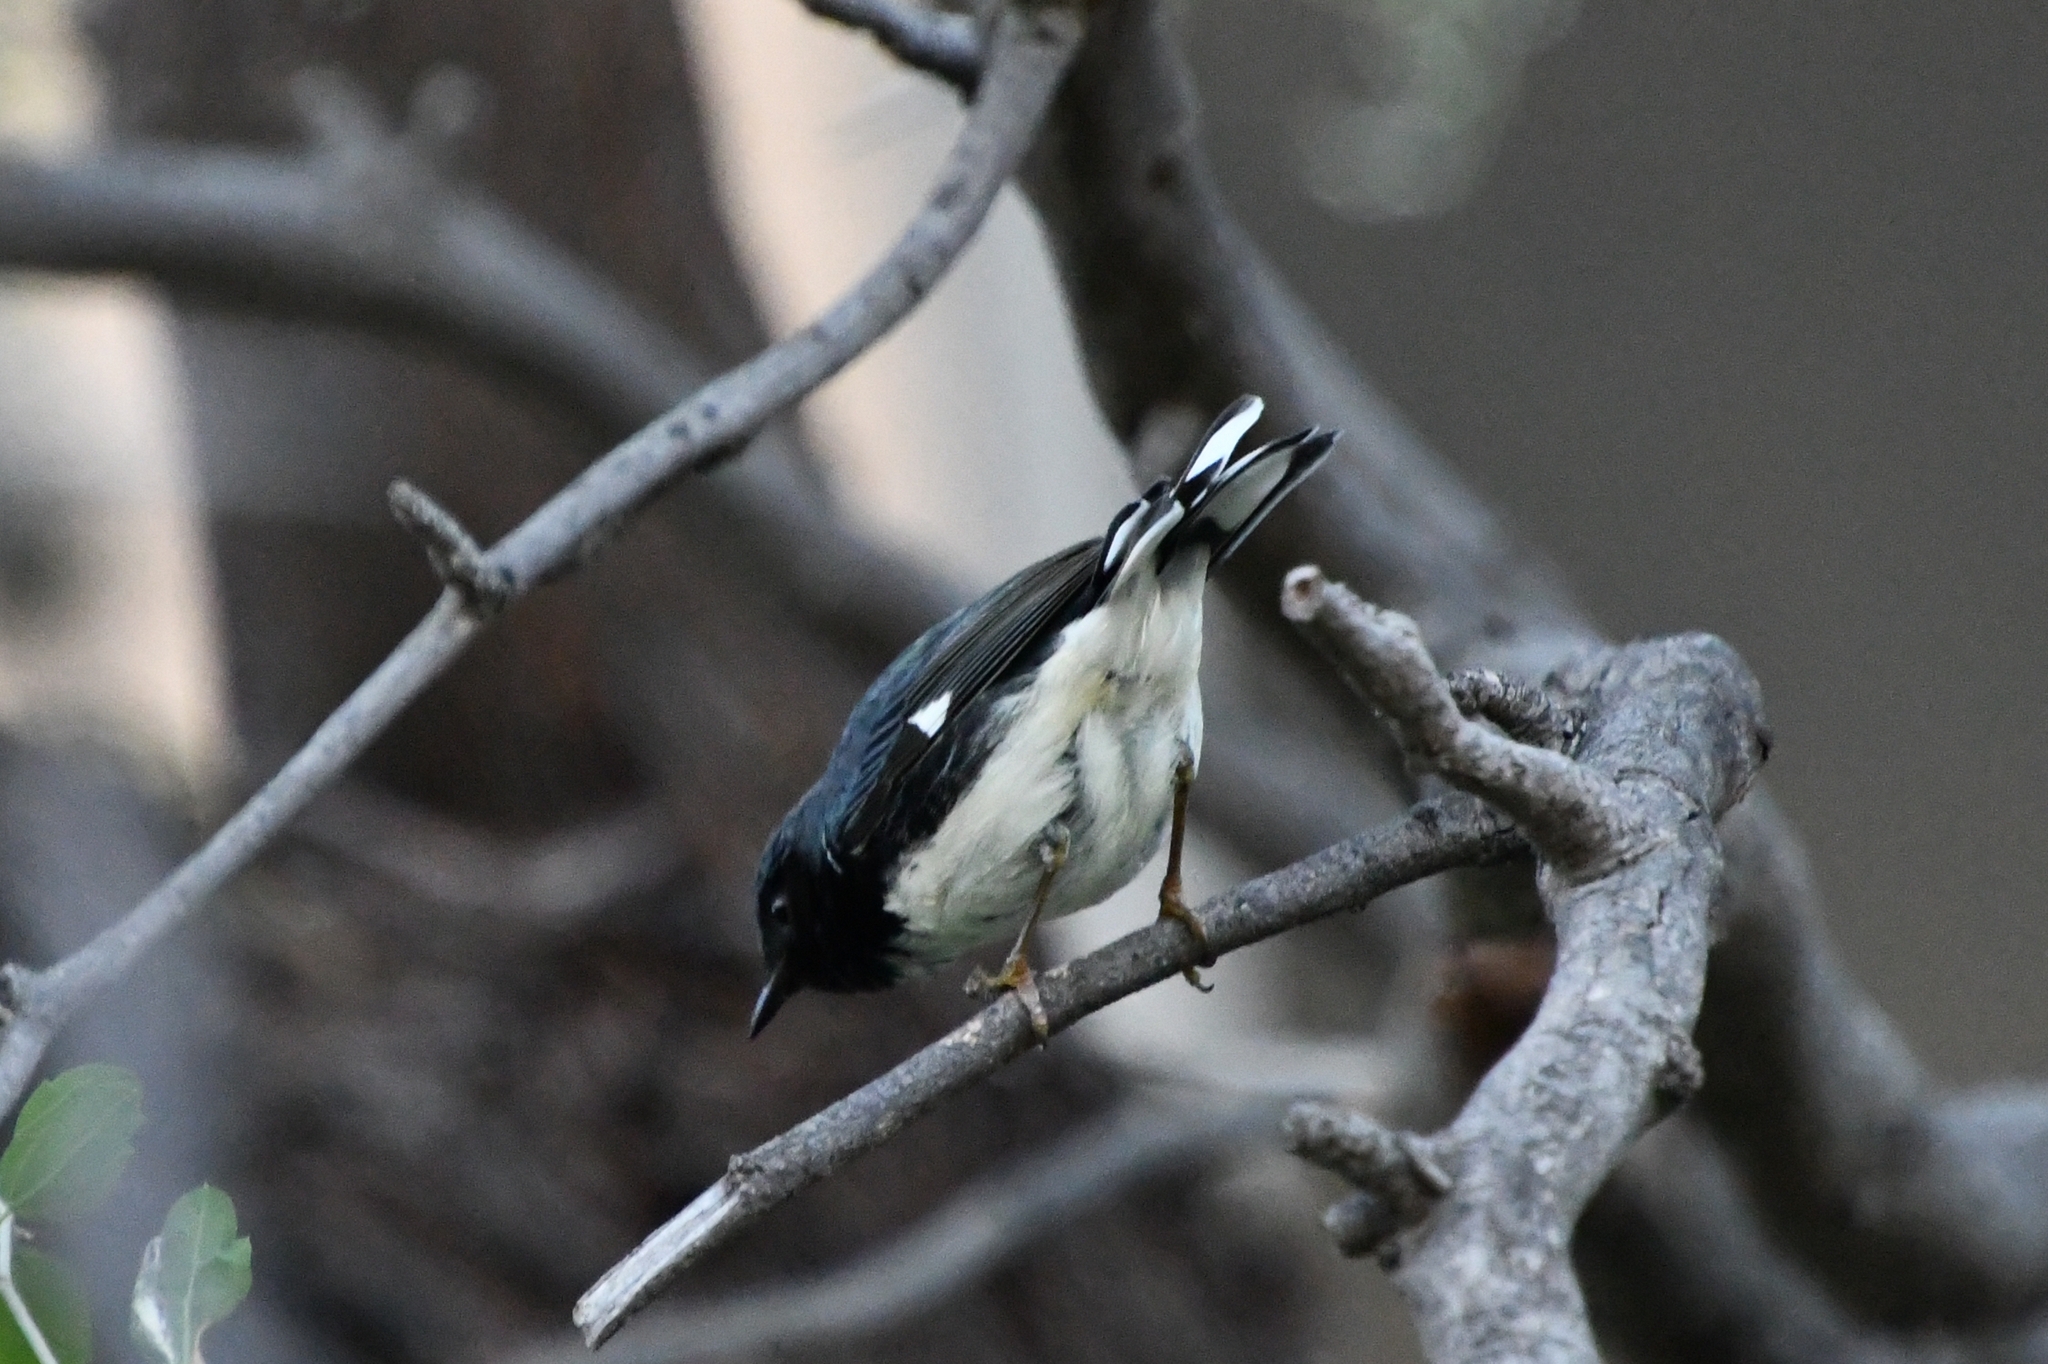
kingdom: Animalia
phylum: Chordata
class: Aves
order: Passeriformes
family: Parulidae
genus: Setophaga
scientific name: Setophaga caerulescens
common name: Black-throated blue warbler
